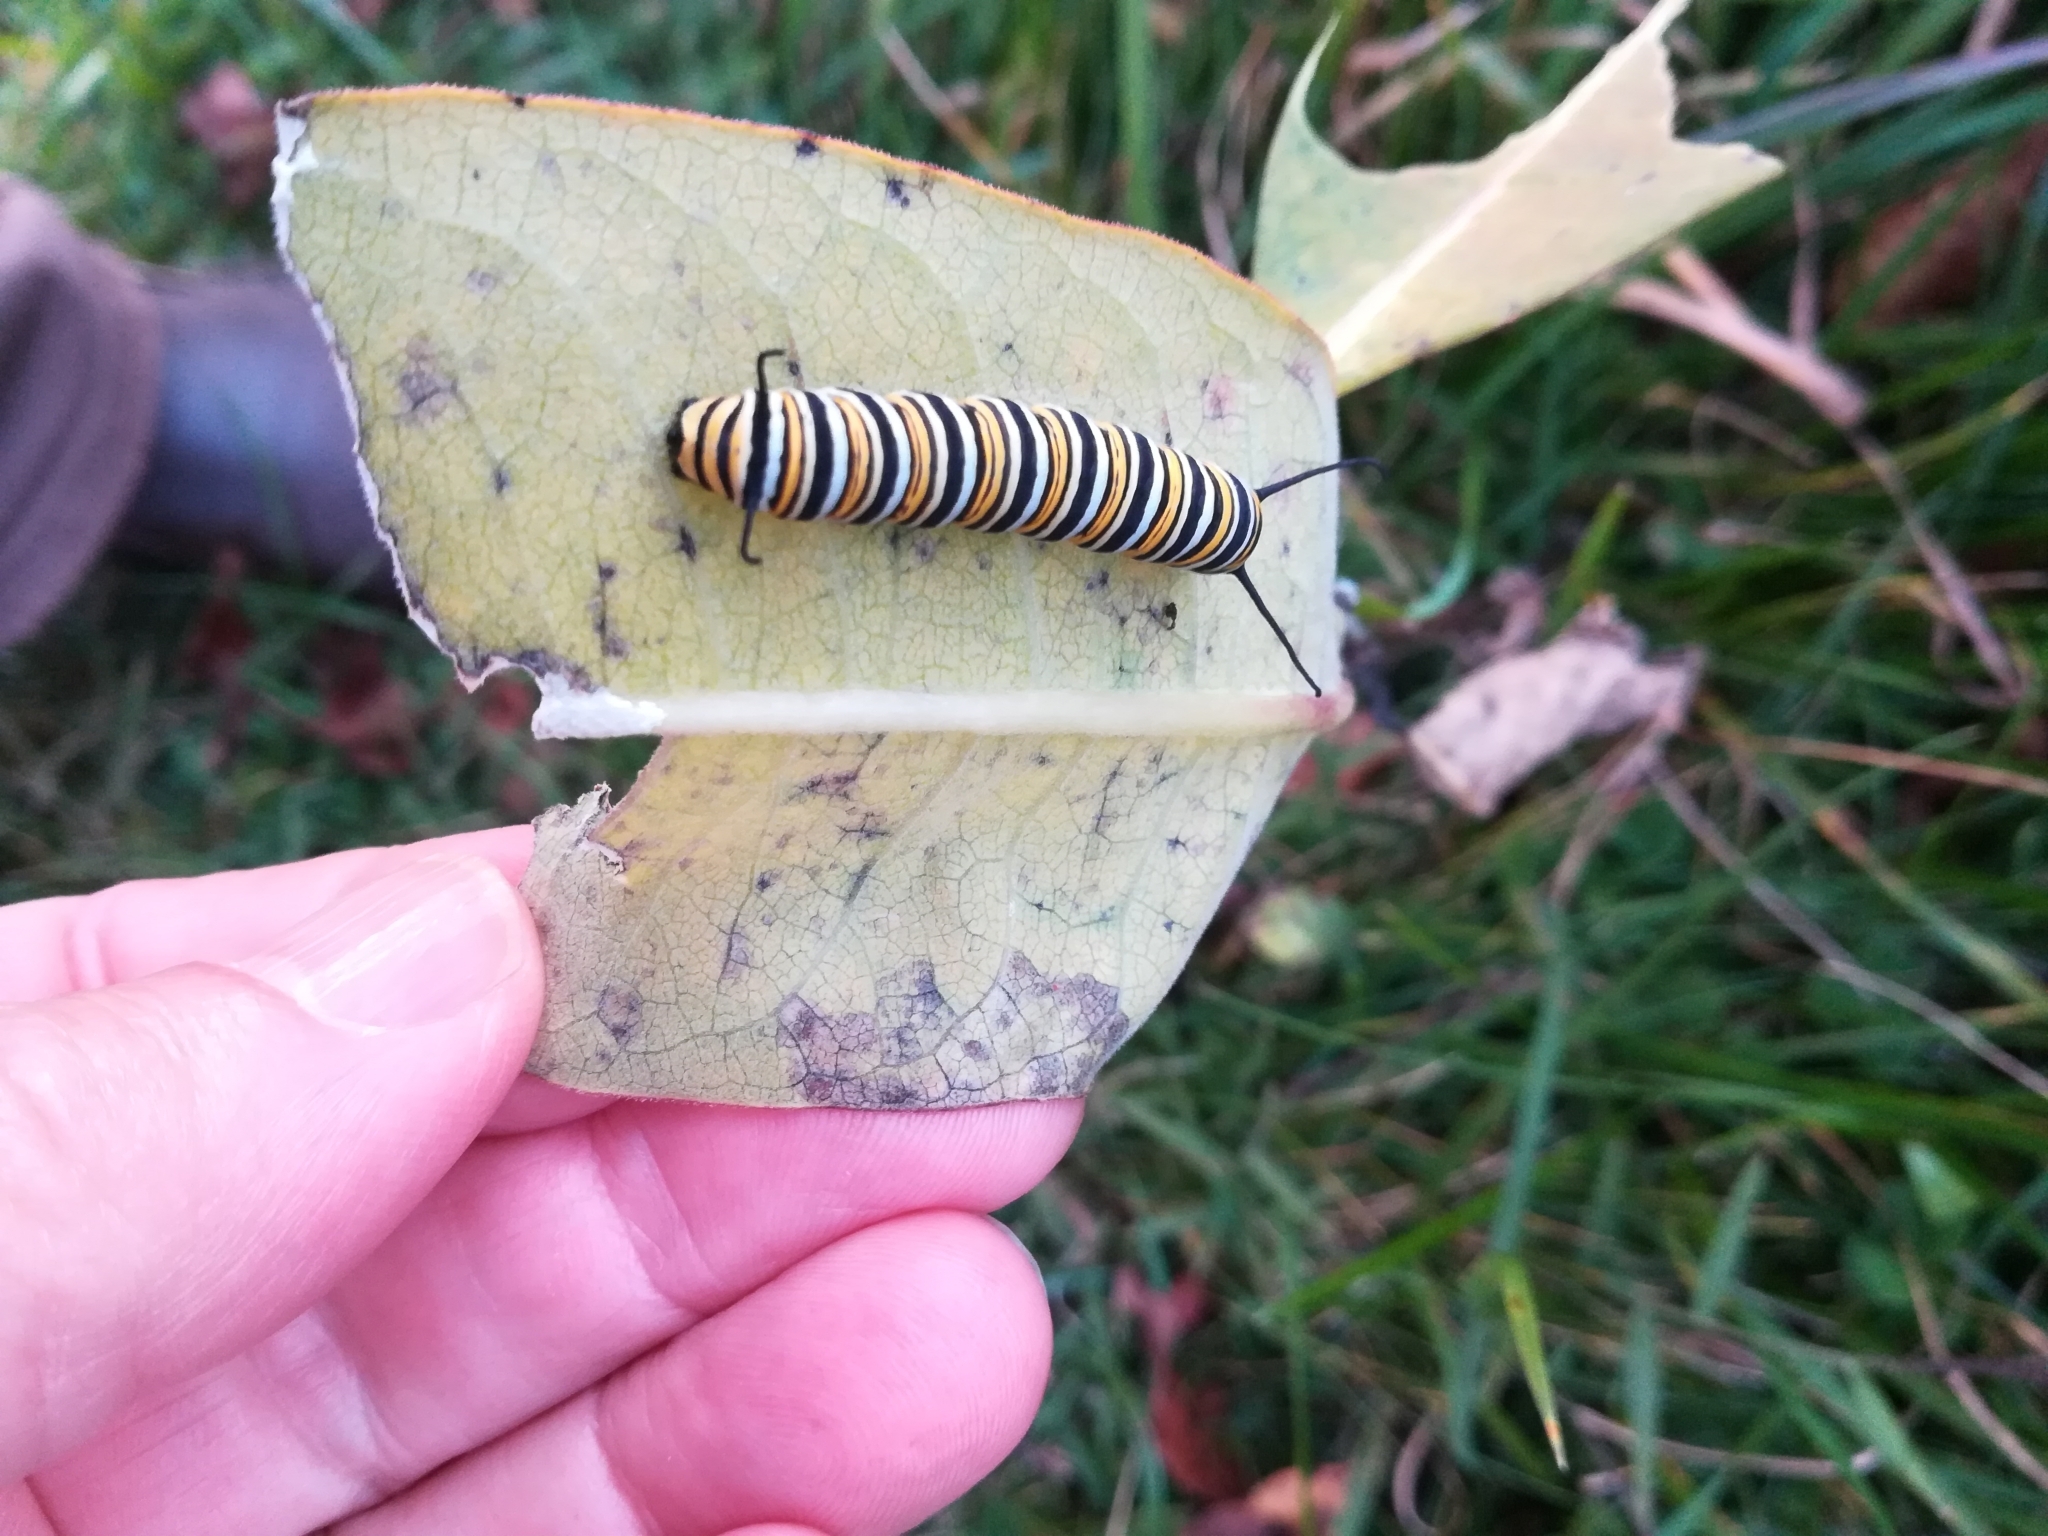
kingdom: Animalia
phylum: Arthropoda
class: Insecta
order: Lepidoptera
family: Nymphalidae
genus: Danaus
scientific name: Danaus plexippus
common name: Monarch
